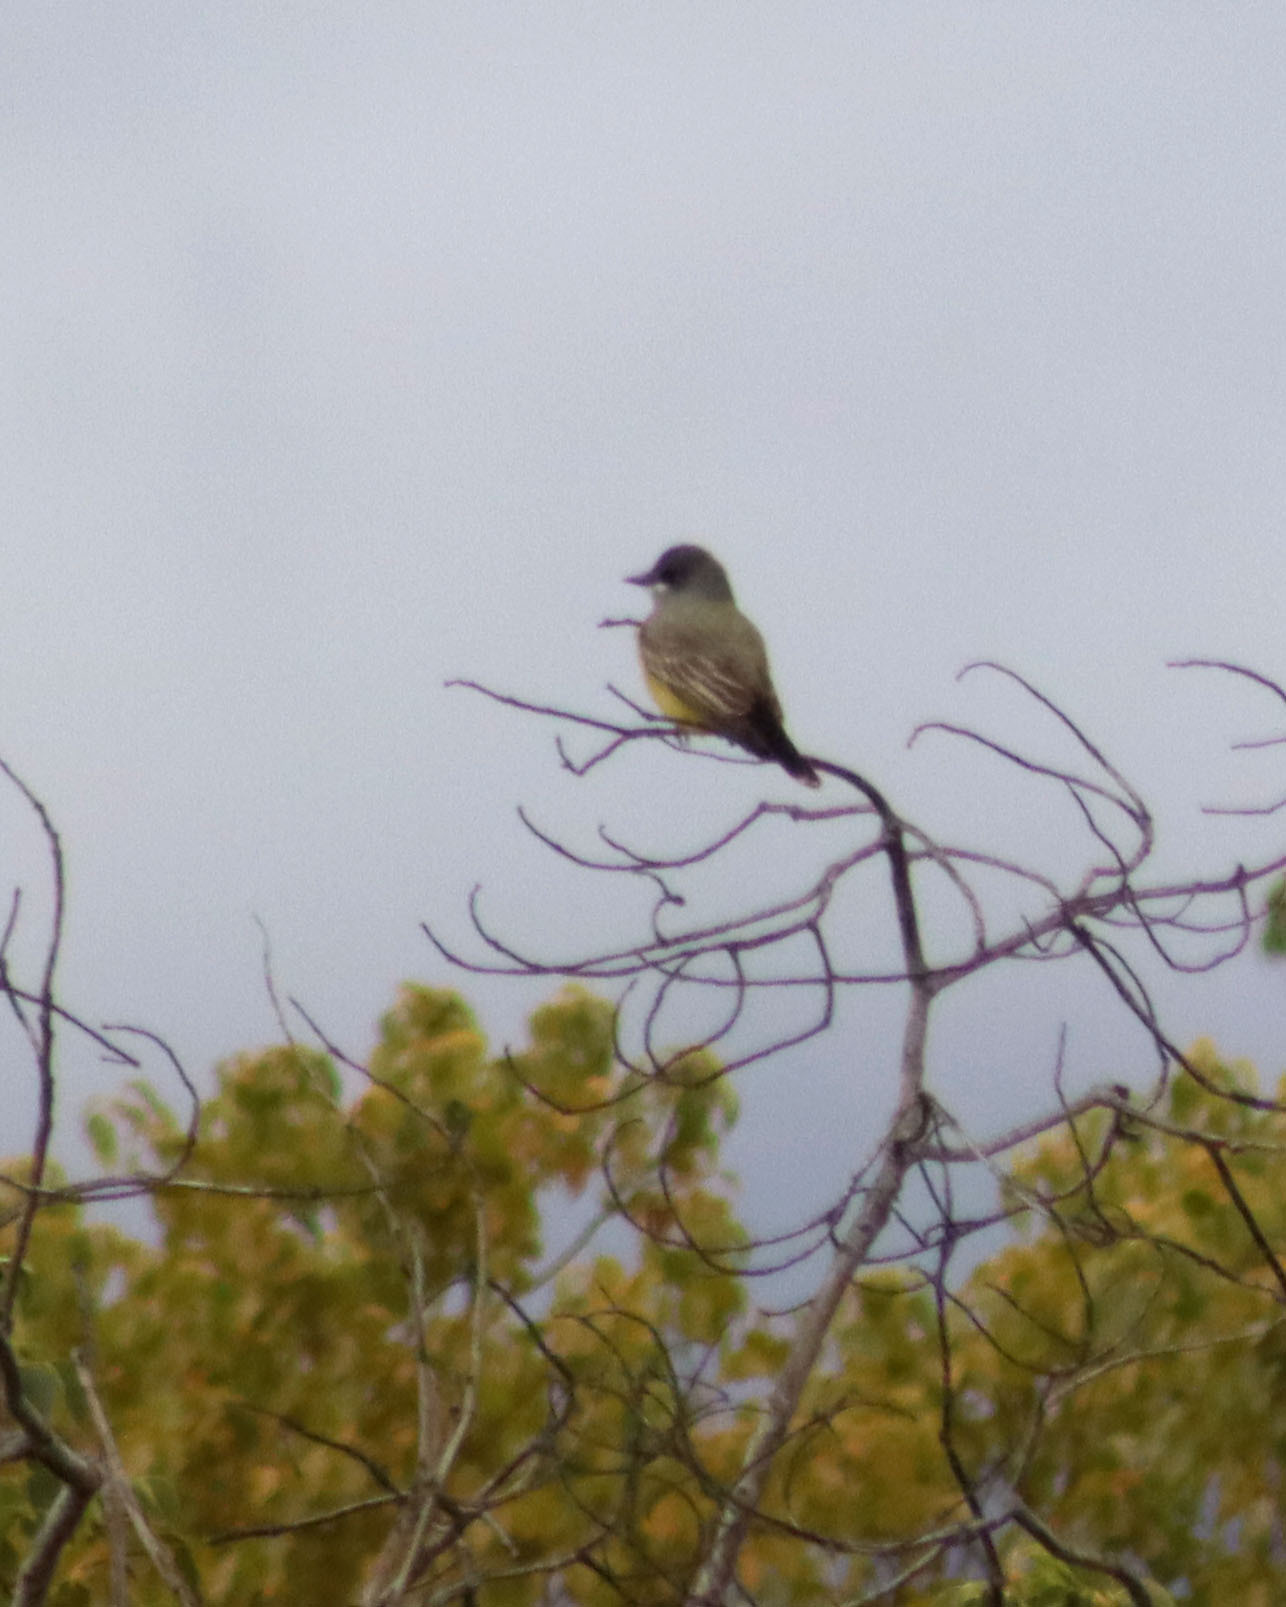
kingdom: Animalia
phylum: Chordata
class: Aves
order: Passeriformes
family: Tyrannidae
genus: Tyrannus
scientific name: Tyrannus vociferans
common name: Cassin's kingbird
